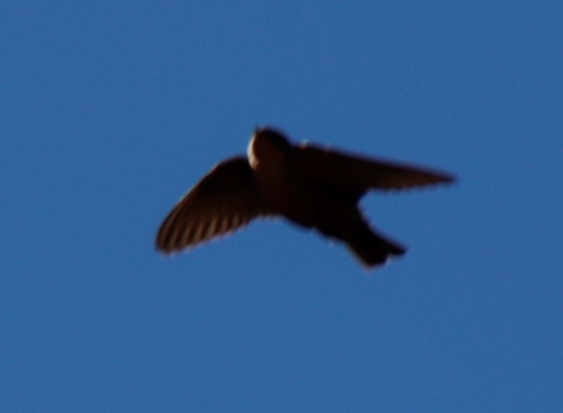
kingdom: Animalia
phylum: Chordata
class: Aves
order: Passeriformes
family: Hirundinidae
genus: Ptyonoprogne
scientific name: Ptyonoprogne fuligula
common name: Rock martin
